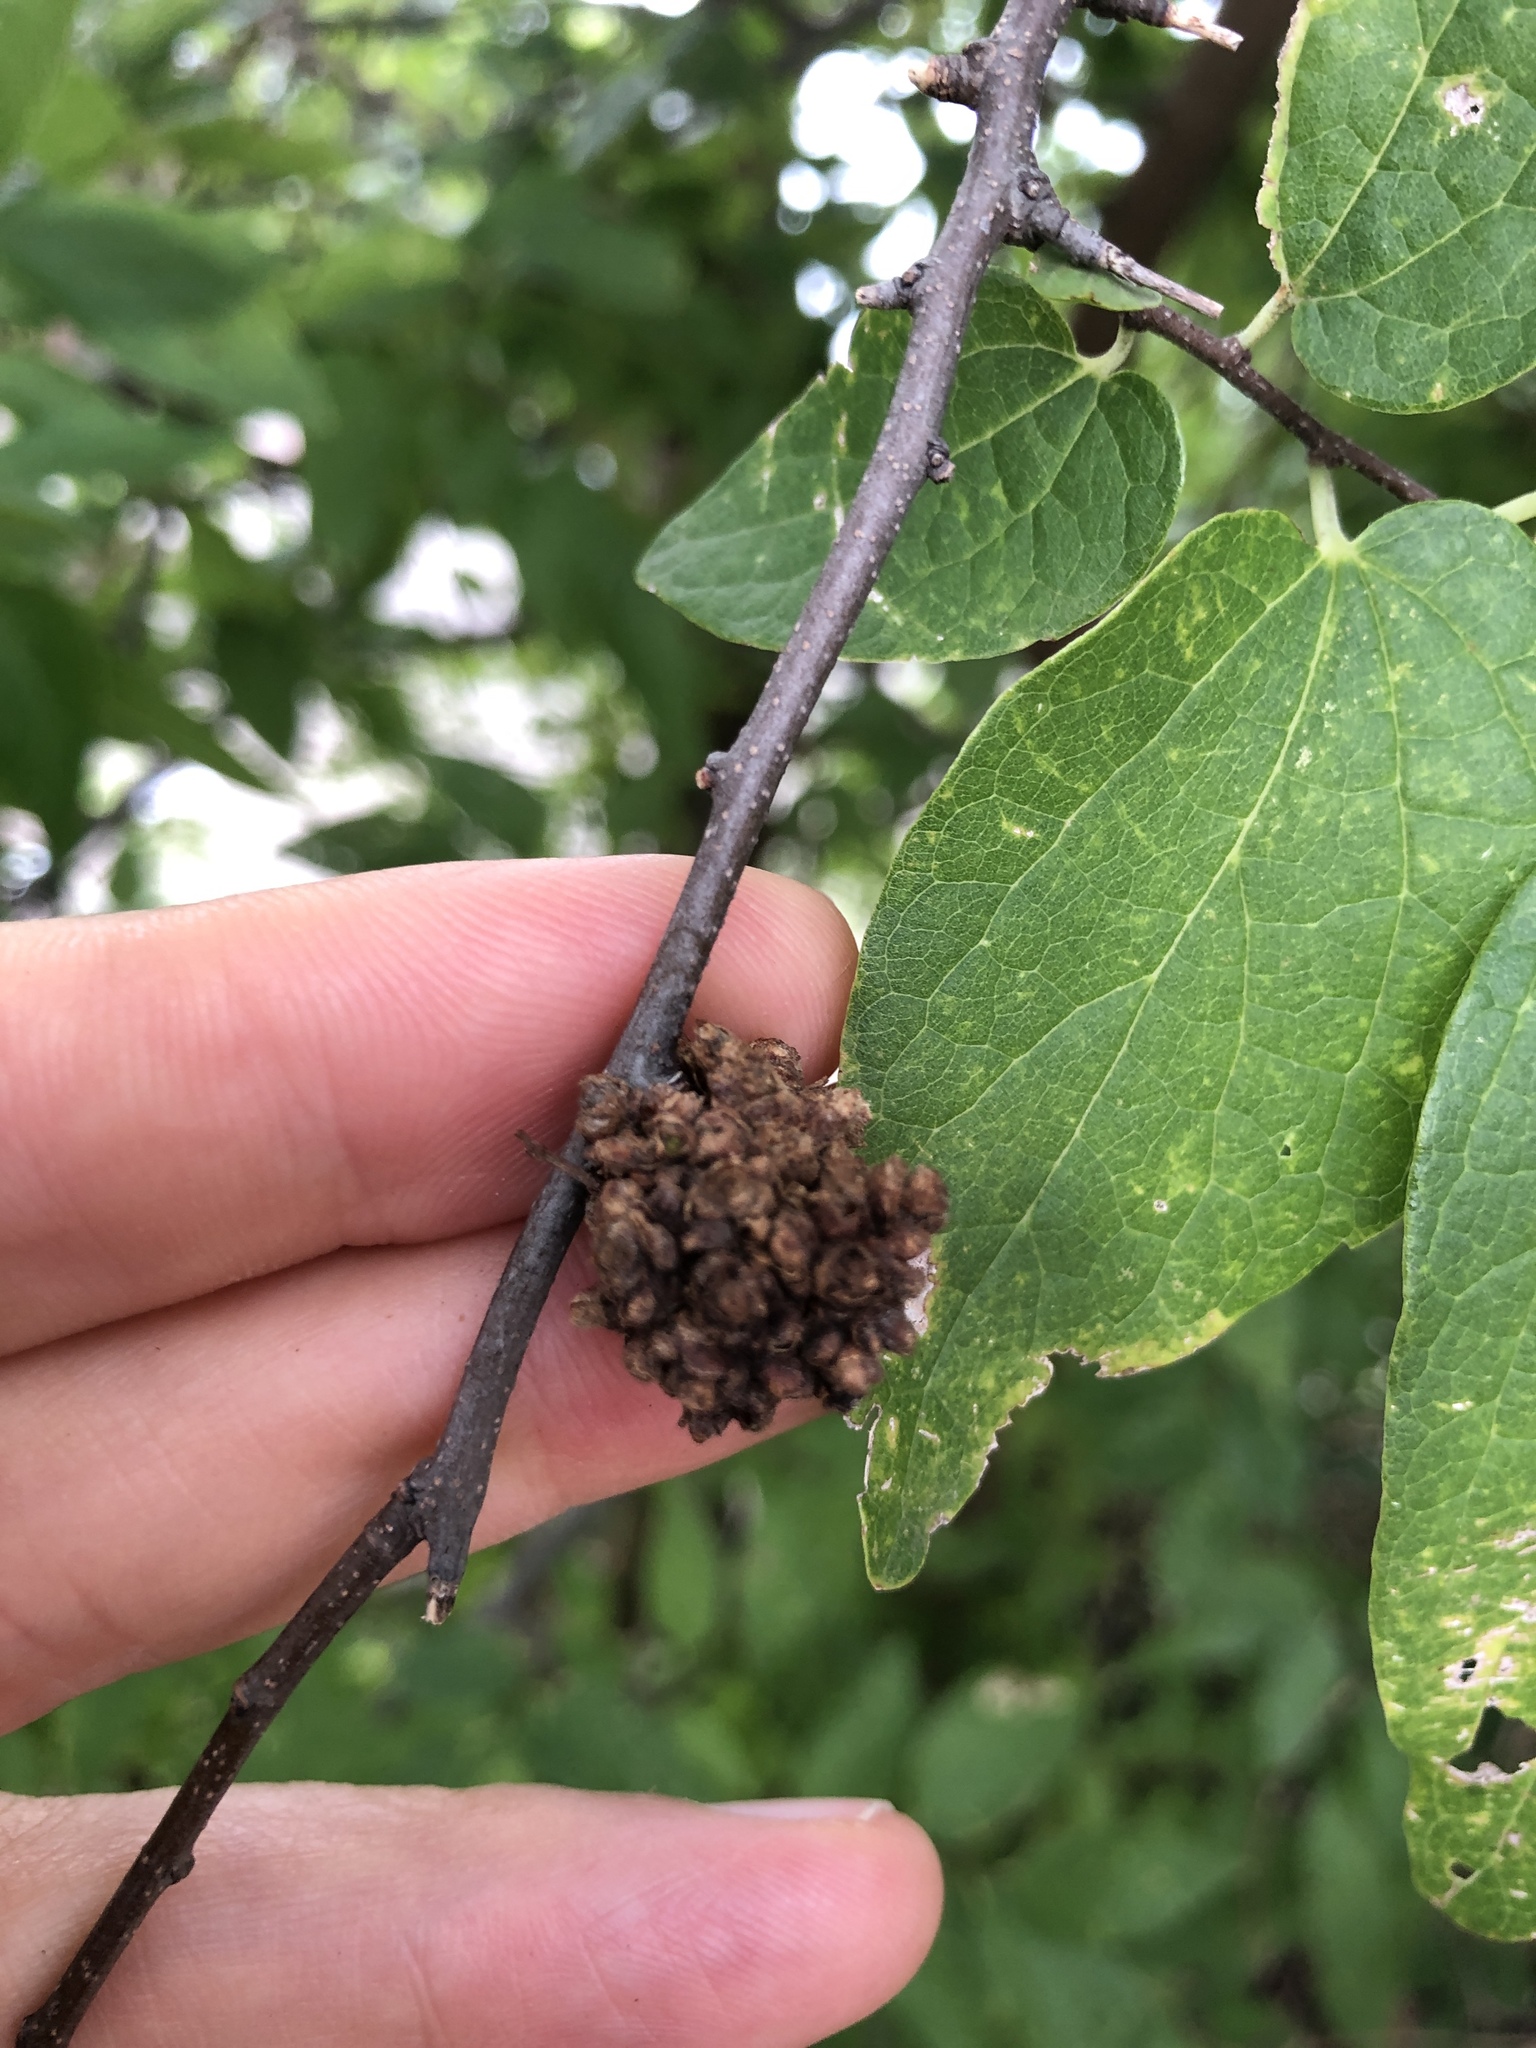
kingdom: Animalia
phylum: Arthropoda
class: Arachnida
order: Trombidiformes
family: Eriophyidae
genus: Aceria
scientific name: Aceria
